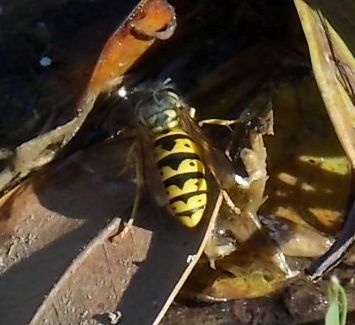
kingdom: Animalia
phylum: Arthropoda
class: Insecta
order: Hymenoptera
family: Vespidae
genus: Vespula
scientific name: Vespula germanica
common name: German wasp
